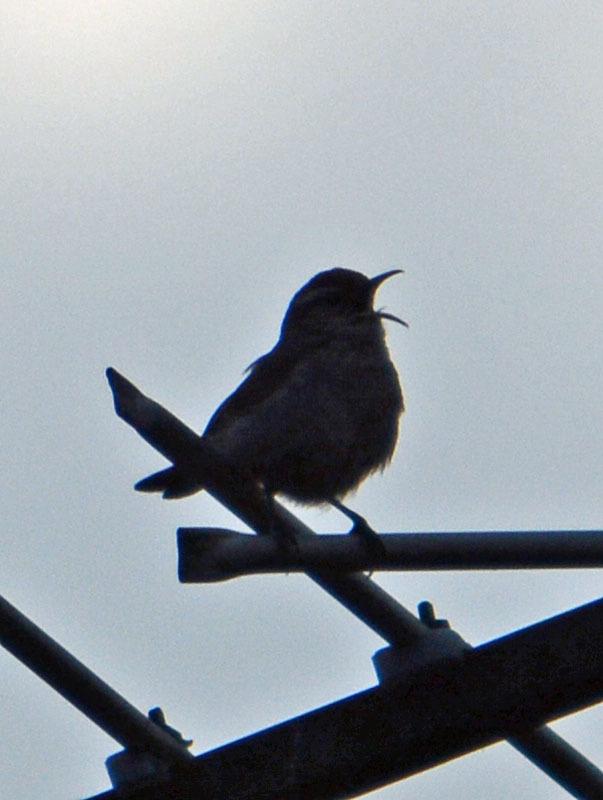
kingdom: Animalia
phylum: Chordata
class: Aves
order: Passeriformes
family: Troglodytidae
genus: Thryomanes
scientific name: Thryomanes bewickii
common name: Bewick's wren
